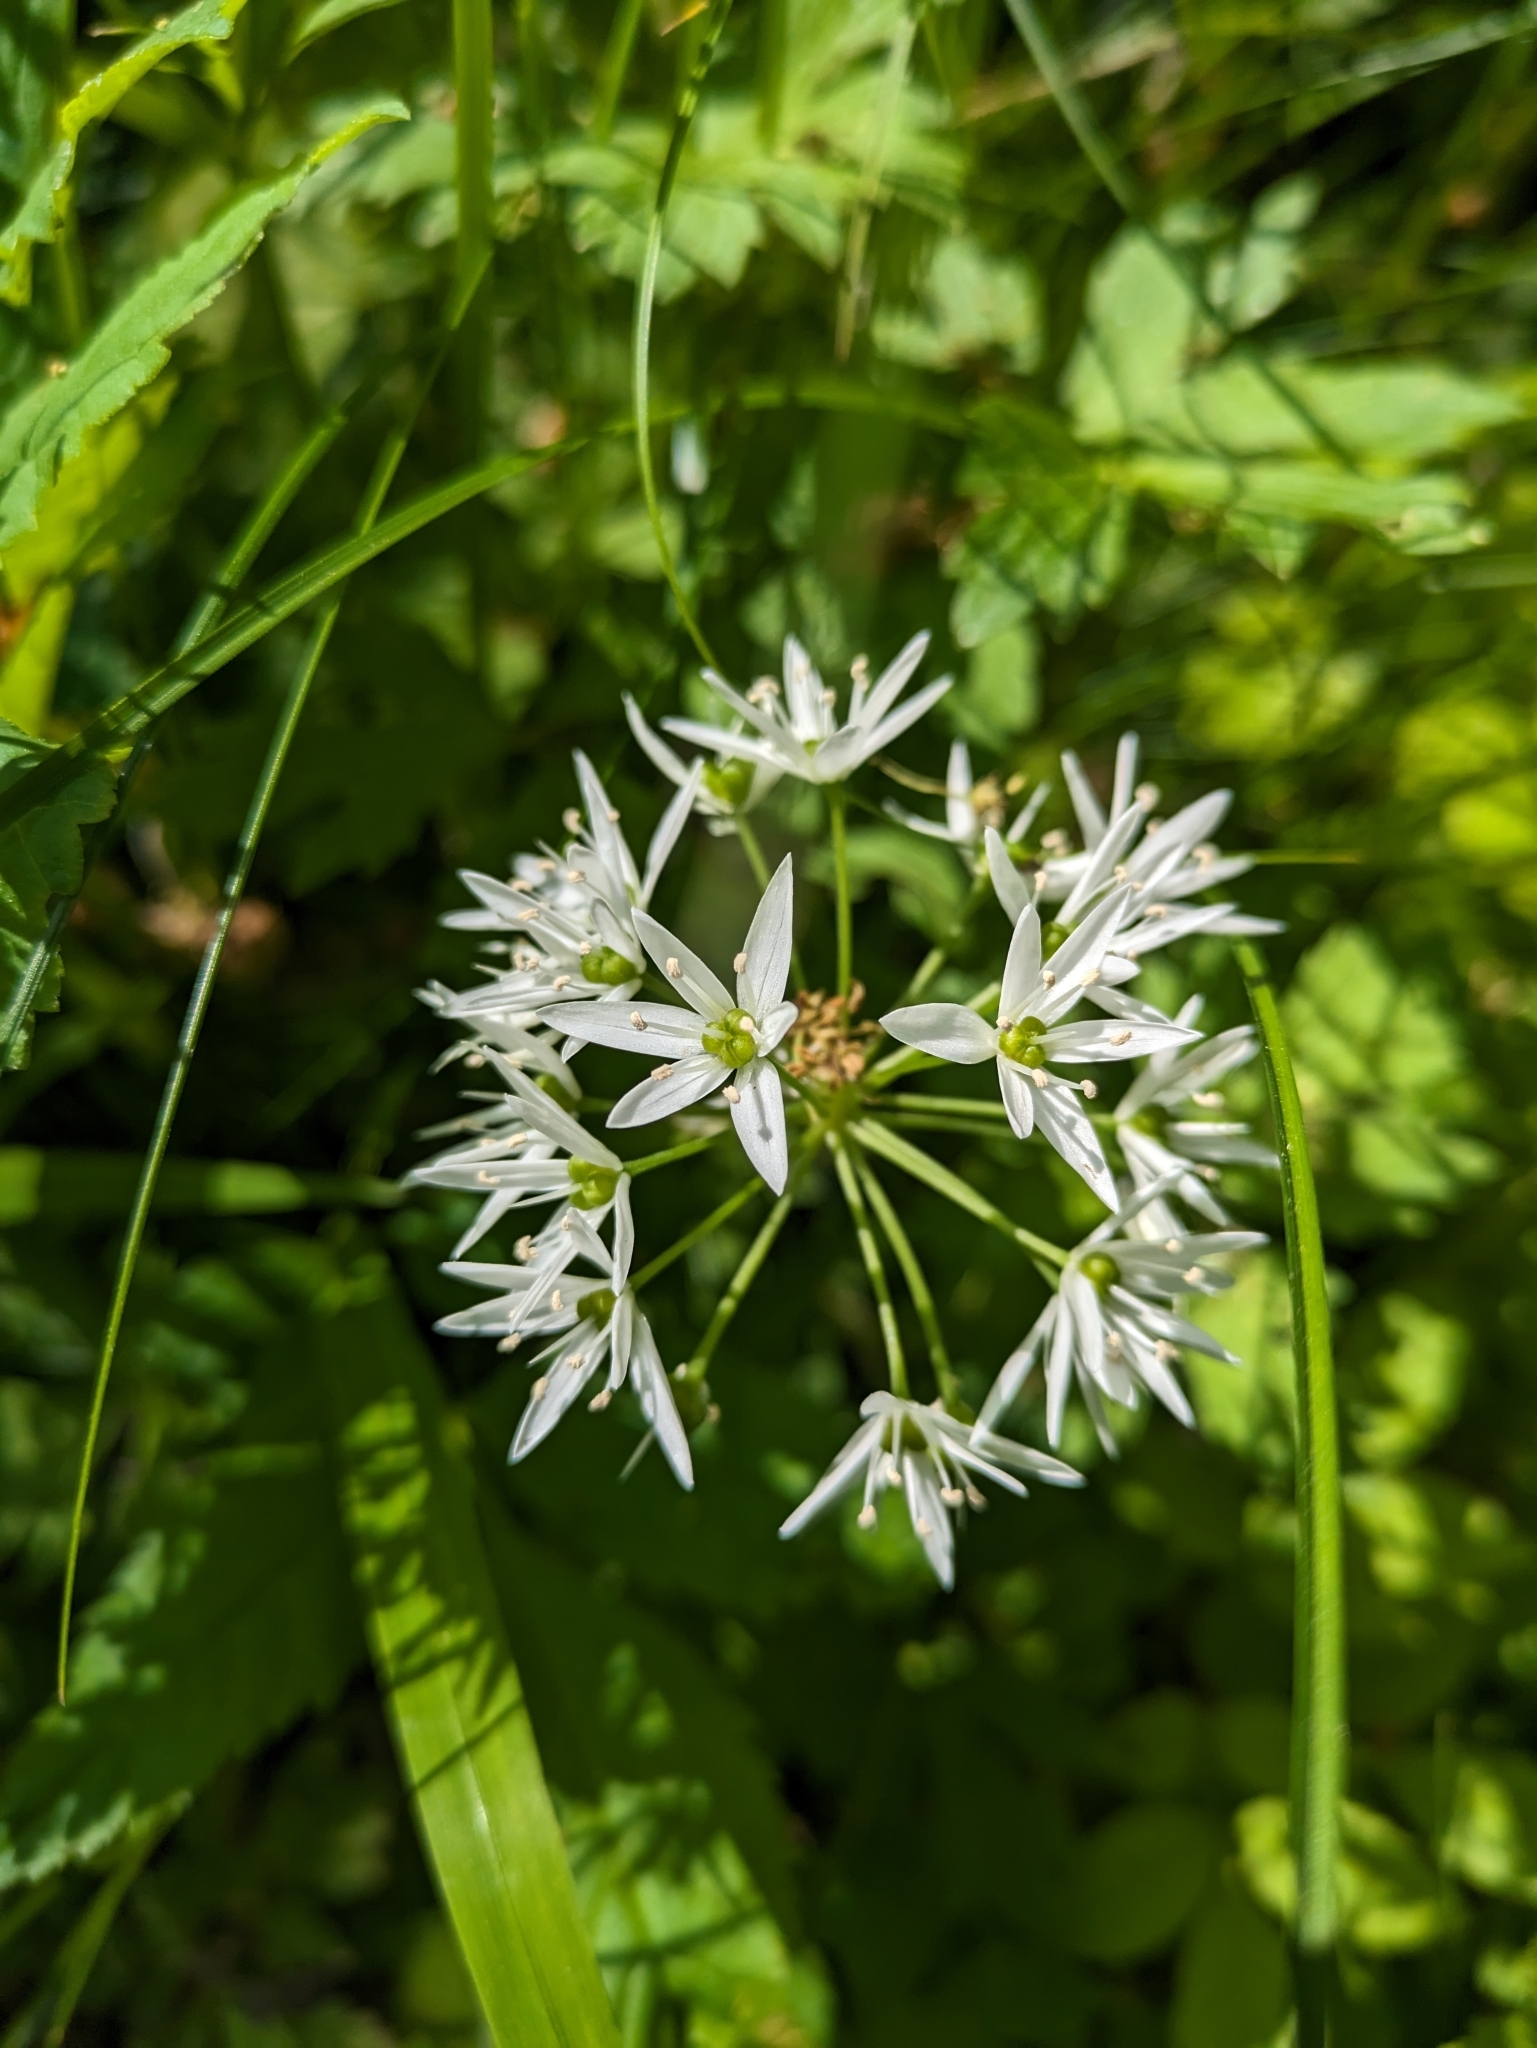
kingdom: Plantae
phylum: Tracheophyta
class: Liliopsida
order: Asparagales
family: Amaryllidaceae
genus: Allium
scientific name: Allium ursinum
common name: Ramsons
